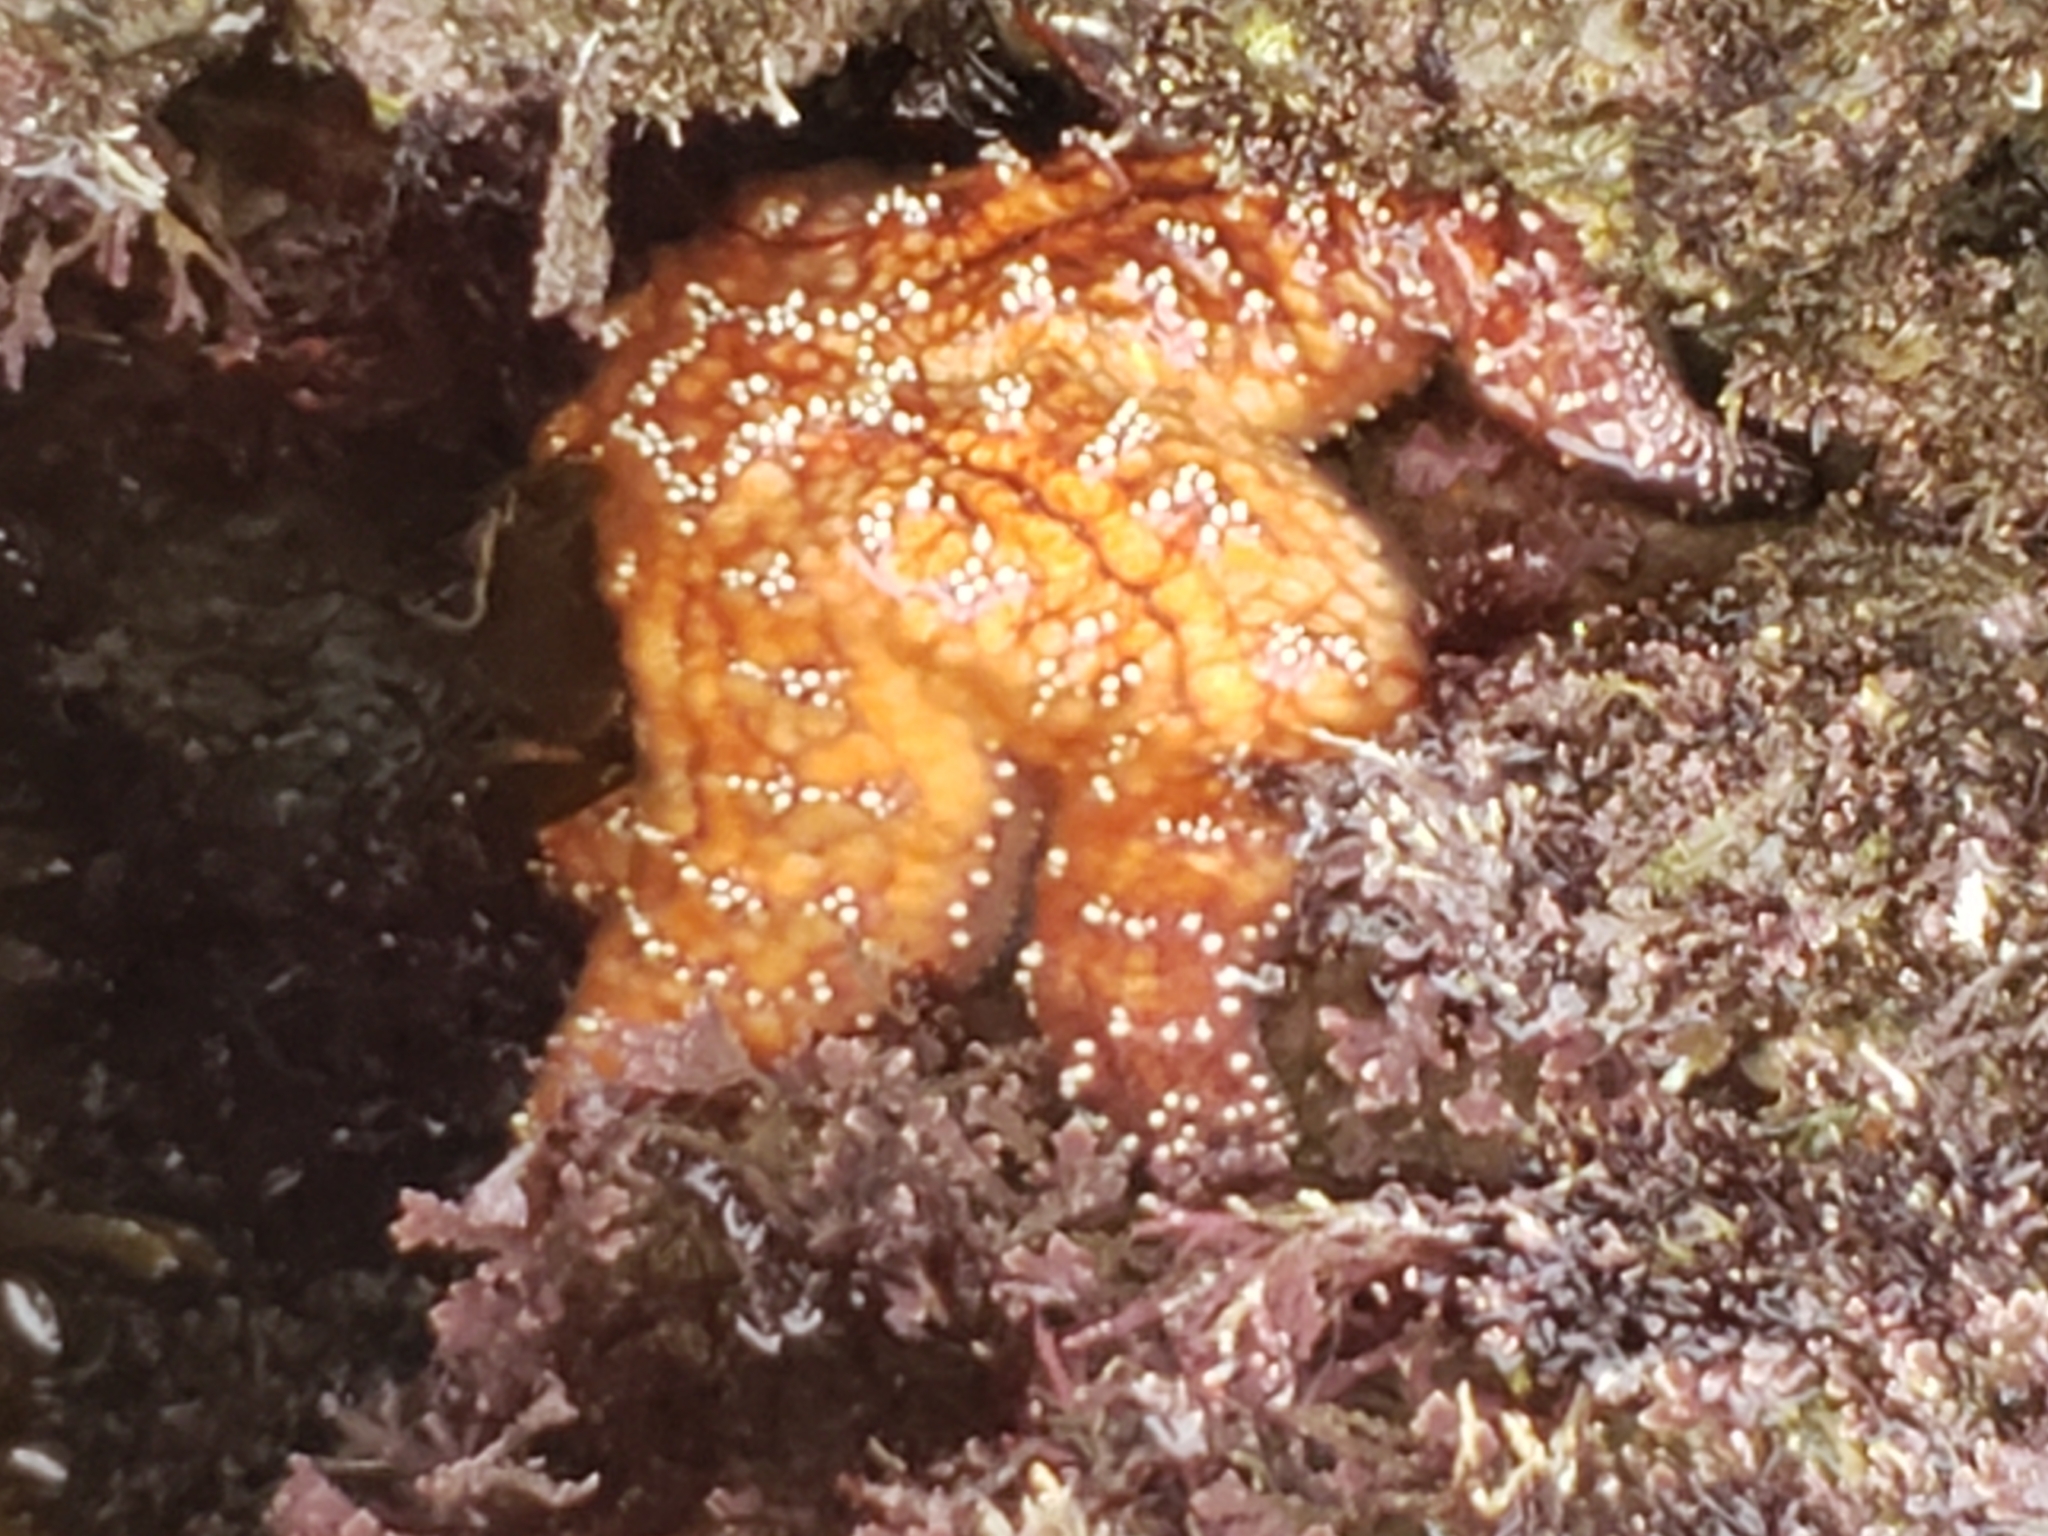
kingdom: Animalia
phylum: Echinodermata
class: Asteroidea
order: Forcipulatida
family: Asteriidae
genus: Pisaster
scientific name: Pisaster ochraceus
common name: Ochre stars
